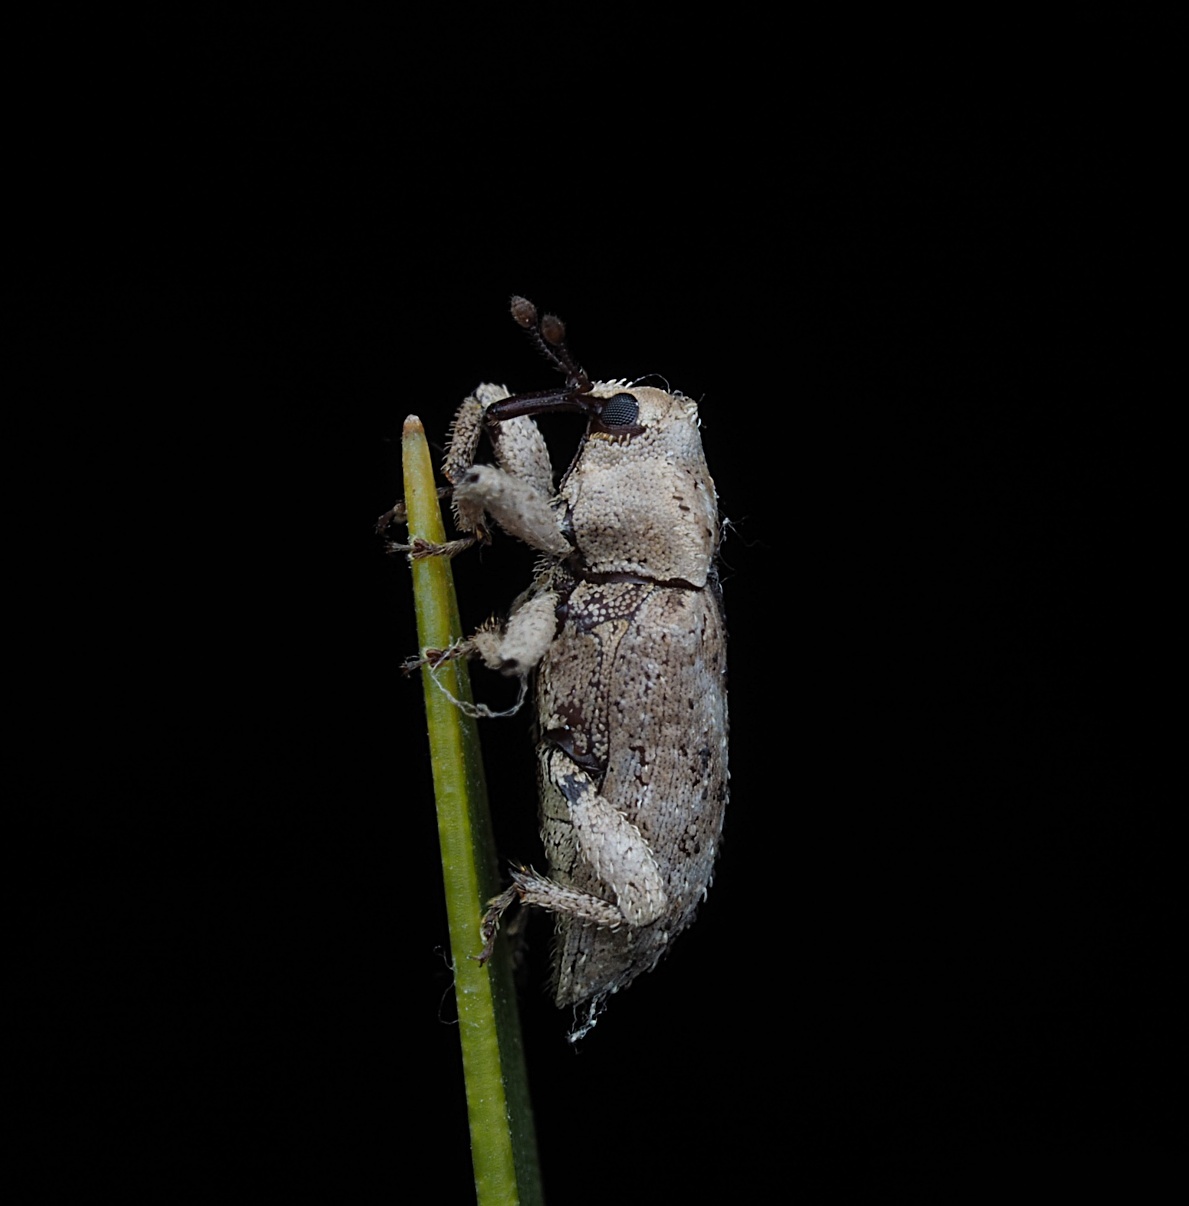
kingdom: Animalia
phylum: Arthropoda
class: Insecta
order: Coleoptera
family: Curculionidae
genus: Mitrastethus
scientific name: Mitrastethus baridioides
